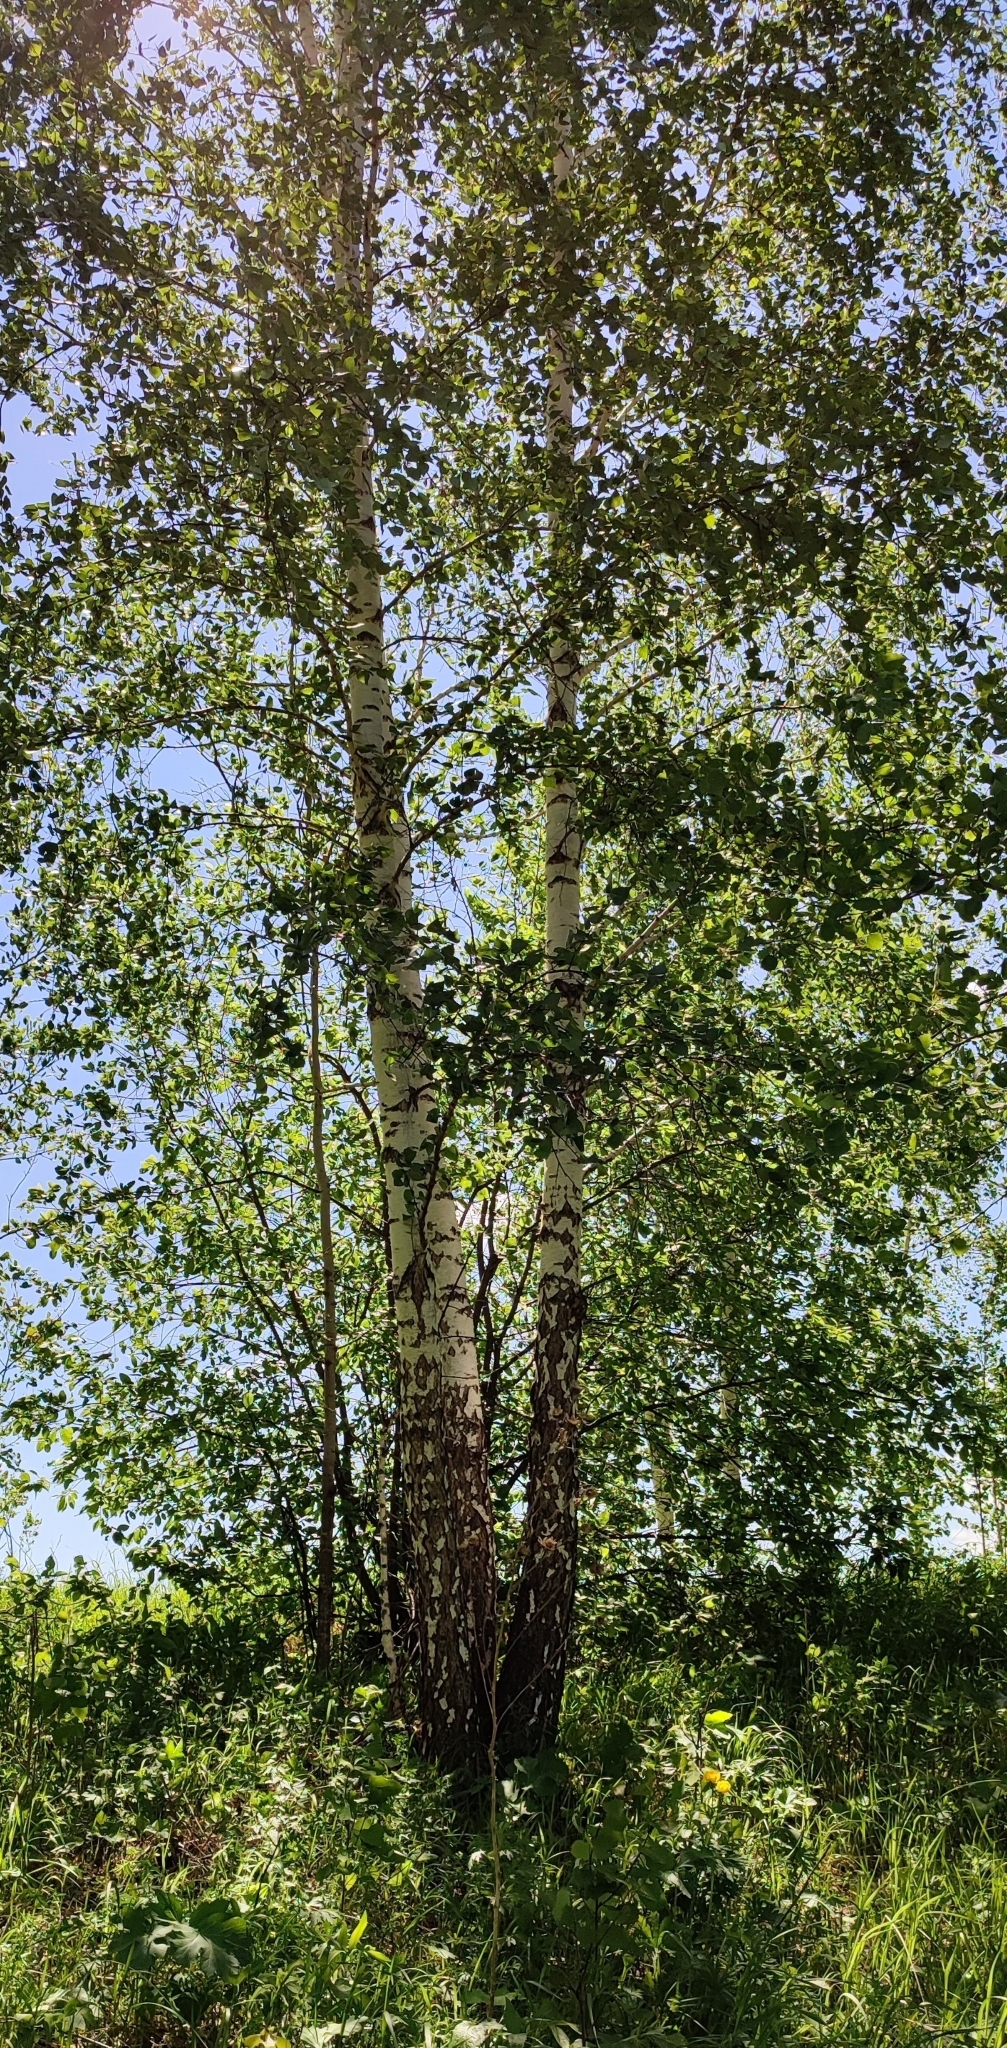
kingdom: Plantae
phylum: Tracheophyta
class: Magnoliopsida
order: Fagales
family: Betulaceae
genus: Betula
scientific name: Betula pendula
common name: Silver birch
